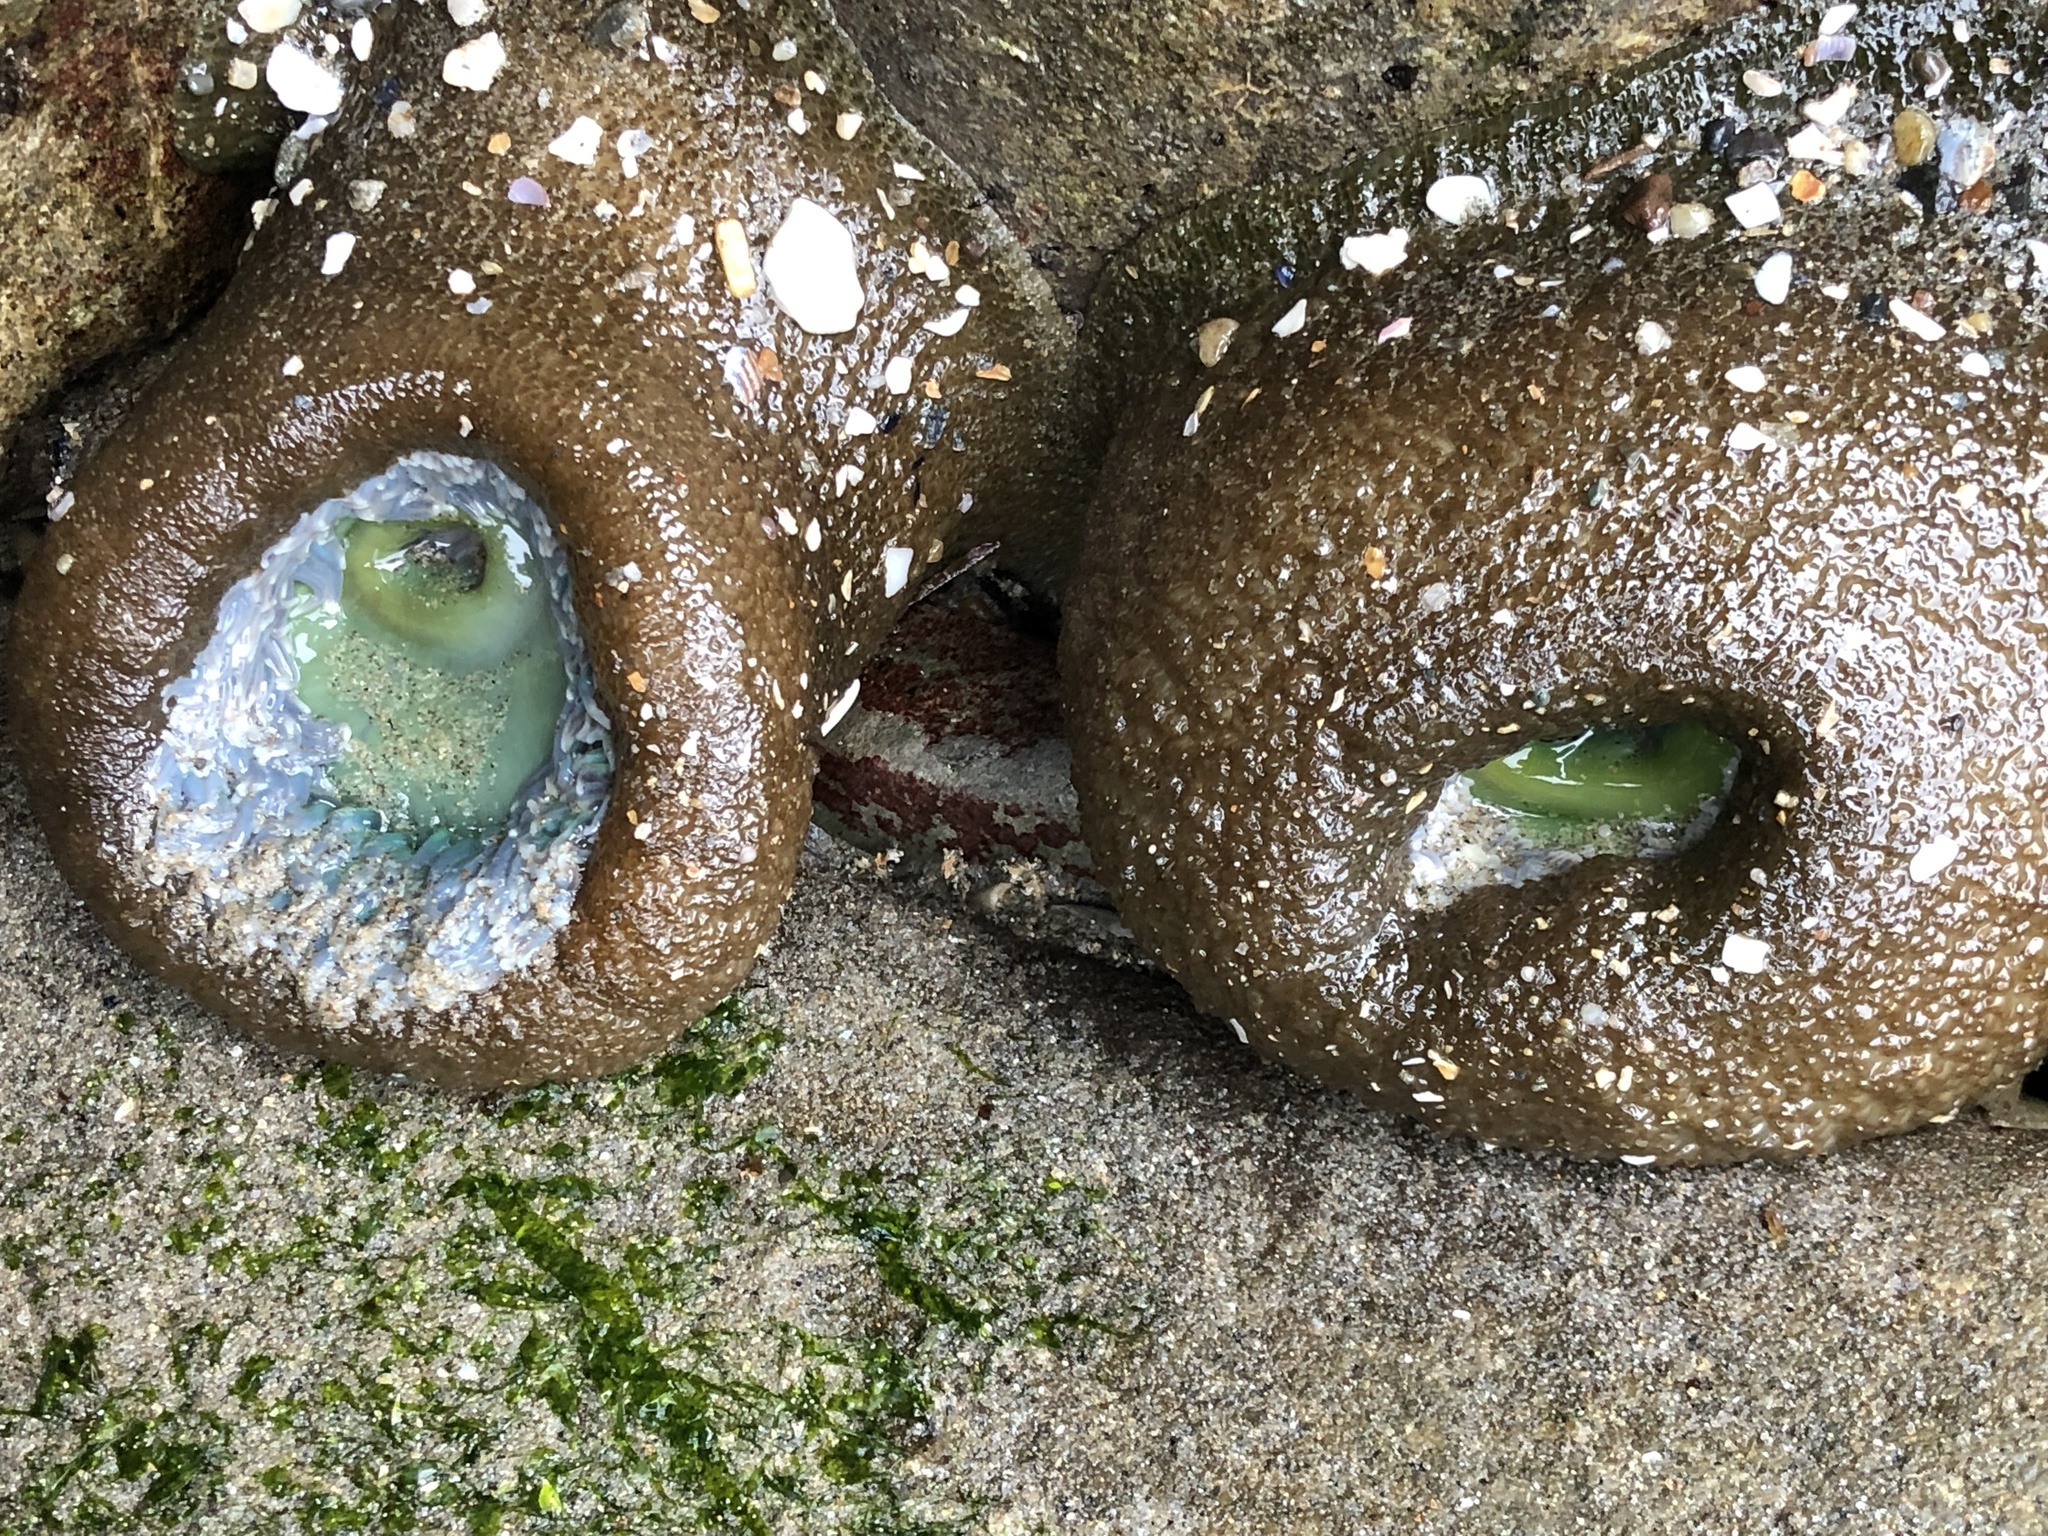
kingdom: Animalia
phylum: Cnidaria
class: Anthozoa
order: Actiniaria
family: Actiniidae
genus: Anthopleura
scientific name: Anthopleura xanthogrammica
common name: Giant green anemone
